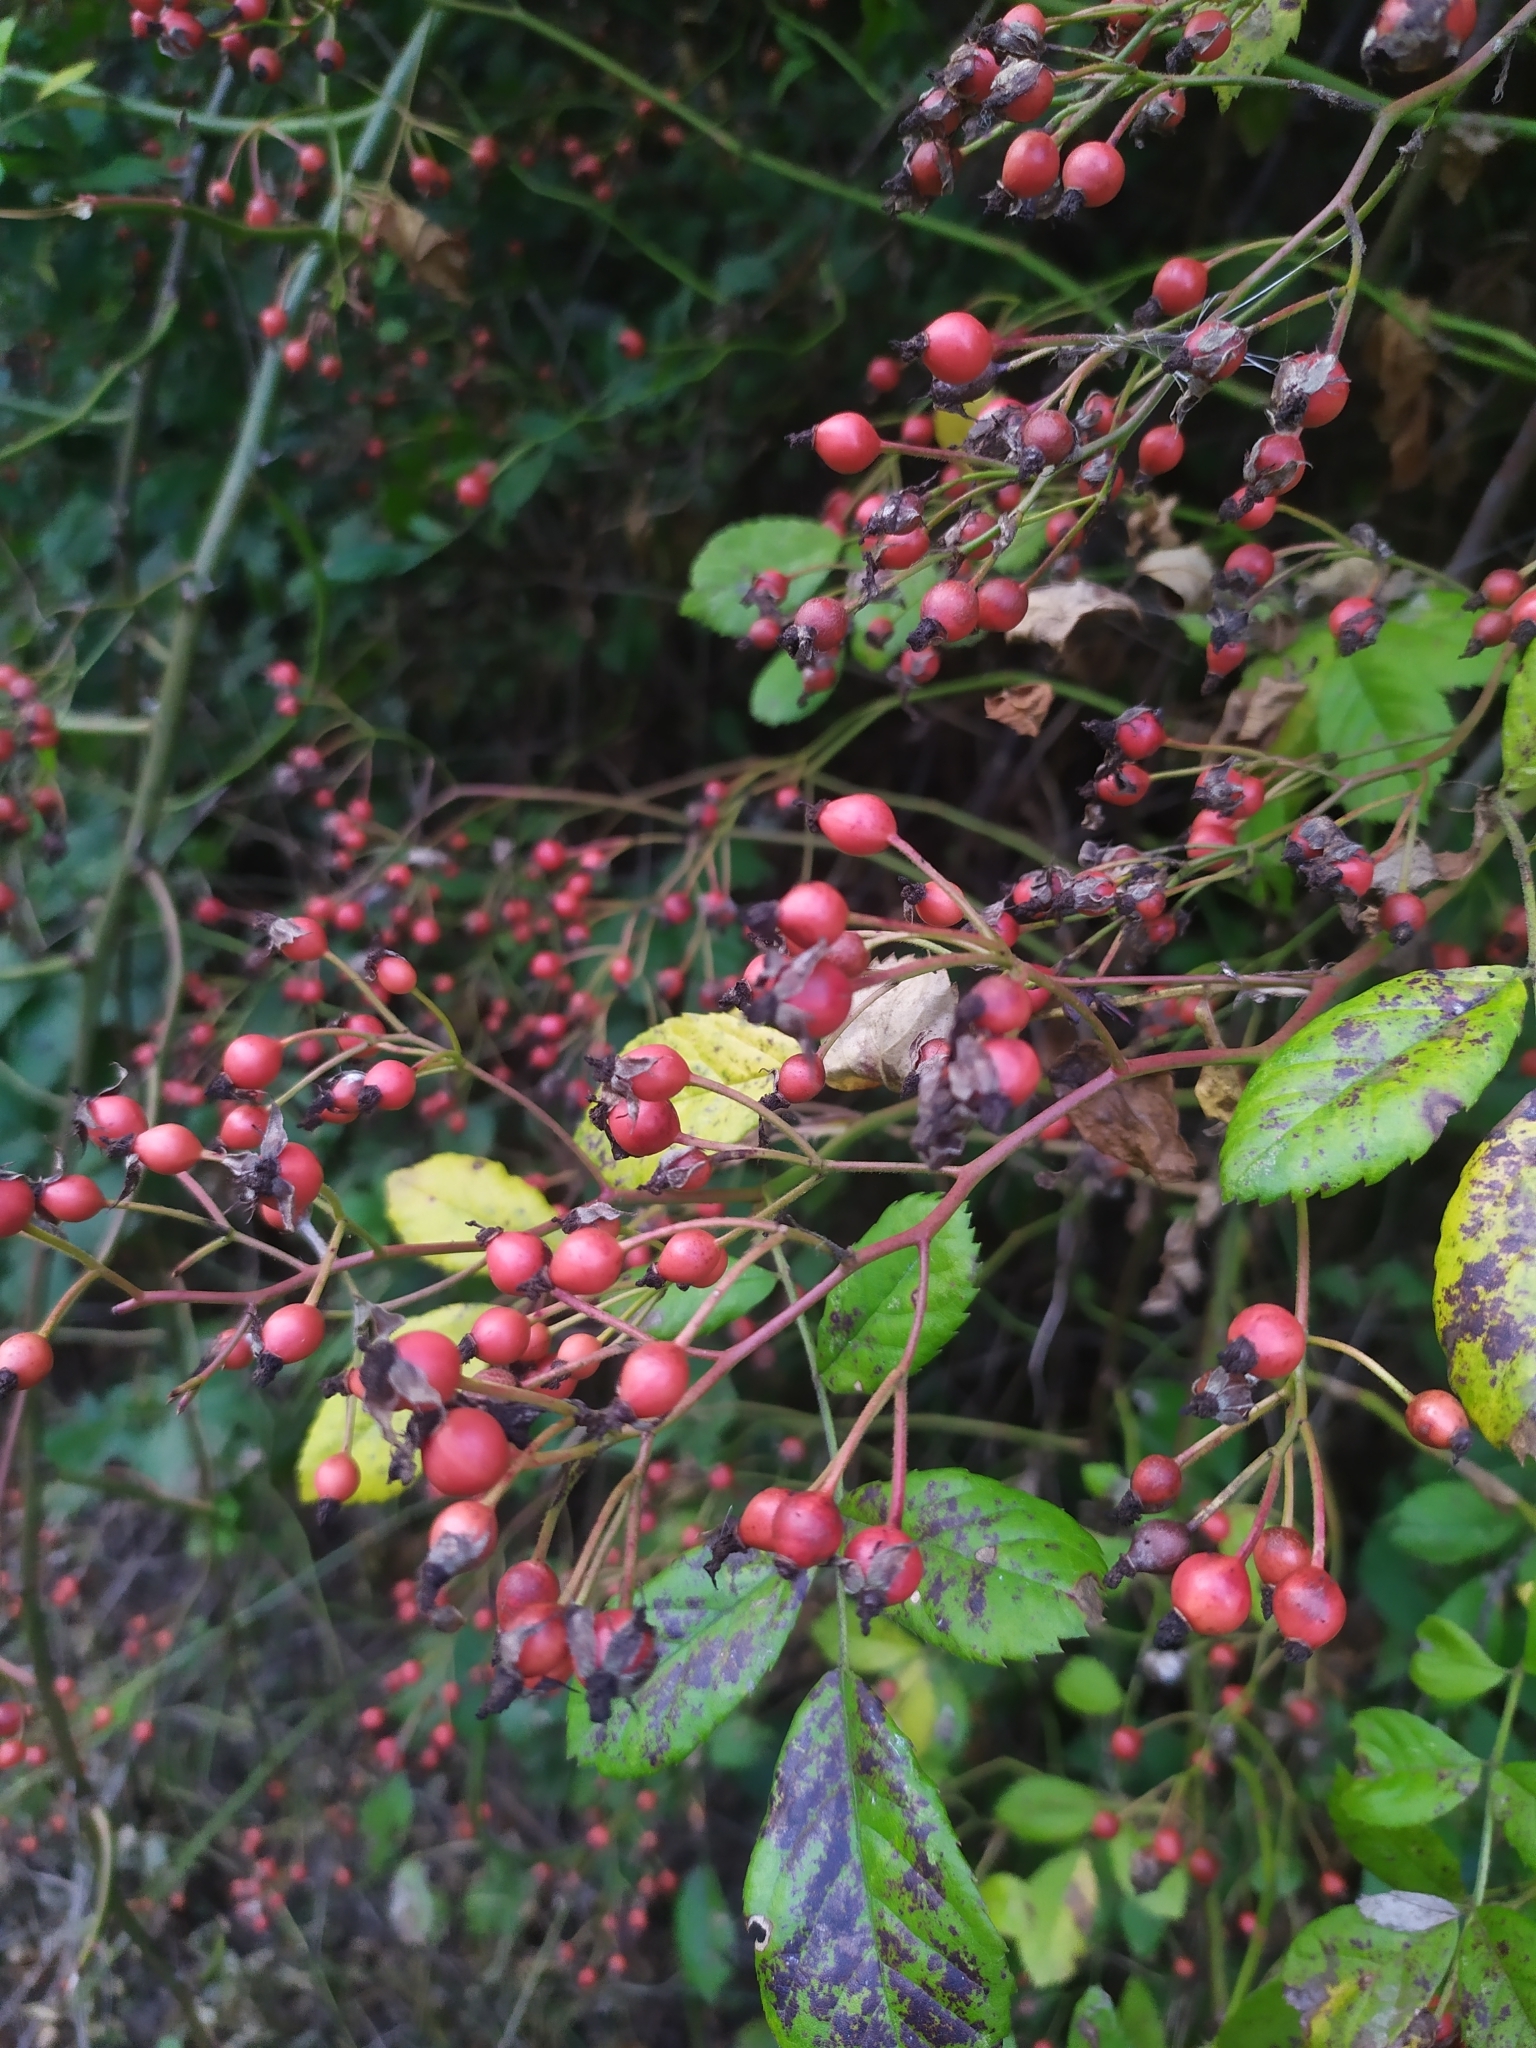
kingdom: Plantae
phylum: Tracheophyta
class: Magnoliopsida
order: Rosales
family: Rosaceae
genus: Rosa
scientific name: Rosa multiflora
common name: Multiflora rose
